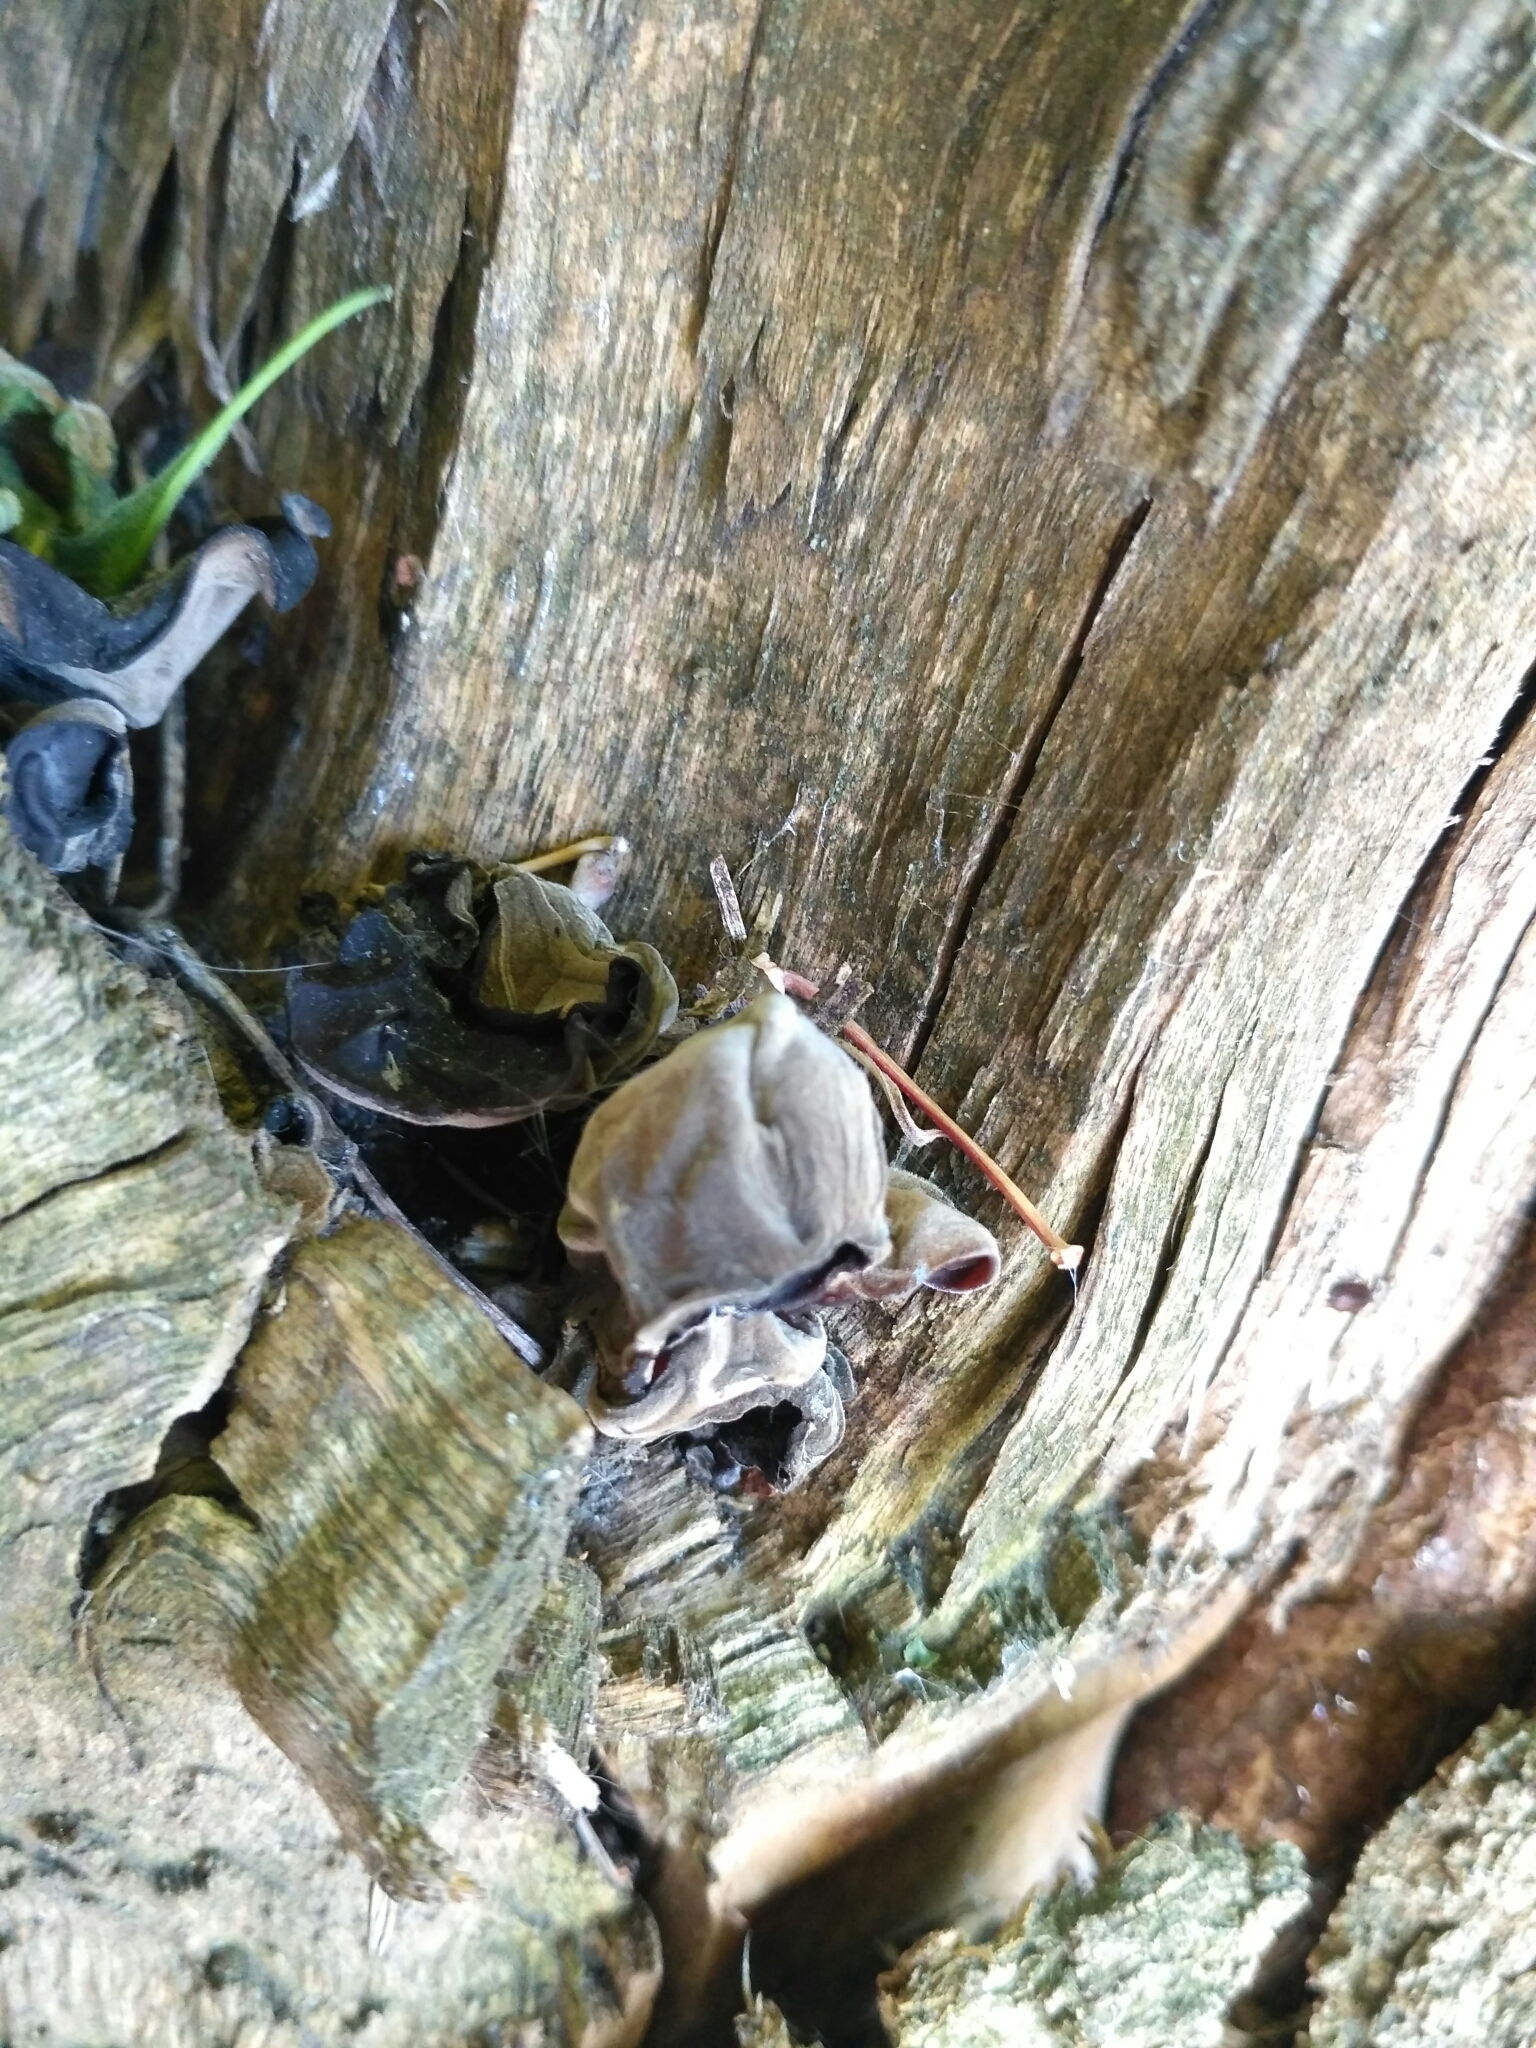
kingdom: Fungi
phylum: Basidiomycota
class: Agaricomycetes
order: Auriculariales
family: Auriculariaceae
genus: Auricularia
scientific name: Auricularia auricula-judae
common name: Jelly ear
